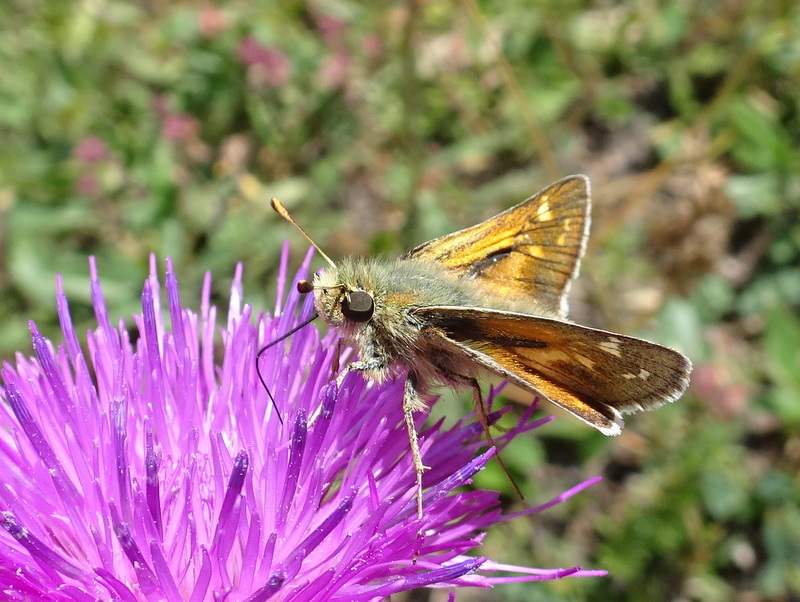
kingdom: Animalia
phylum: Arthropoda
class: Insecta
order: Lepidoptera
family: Hesperiidae
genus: Hesperia
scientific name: Hesperia comma
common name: Common branded skipper
